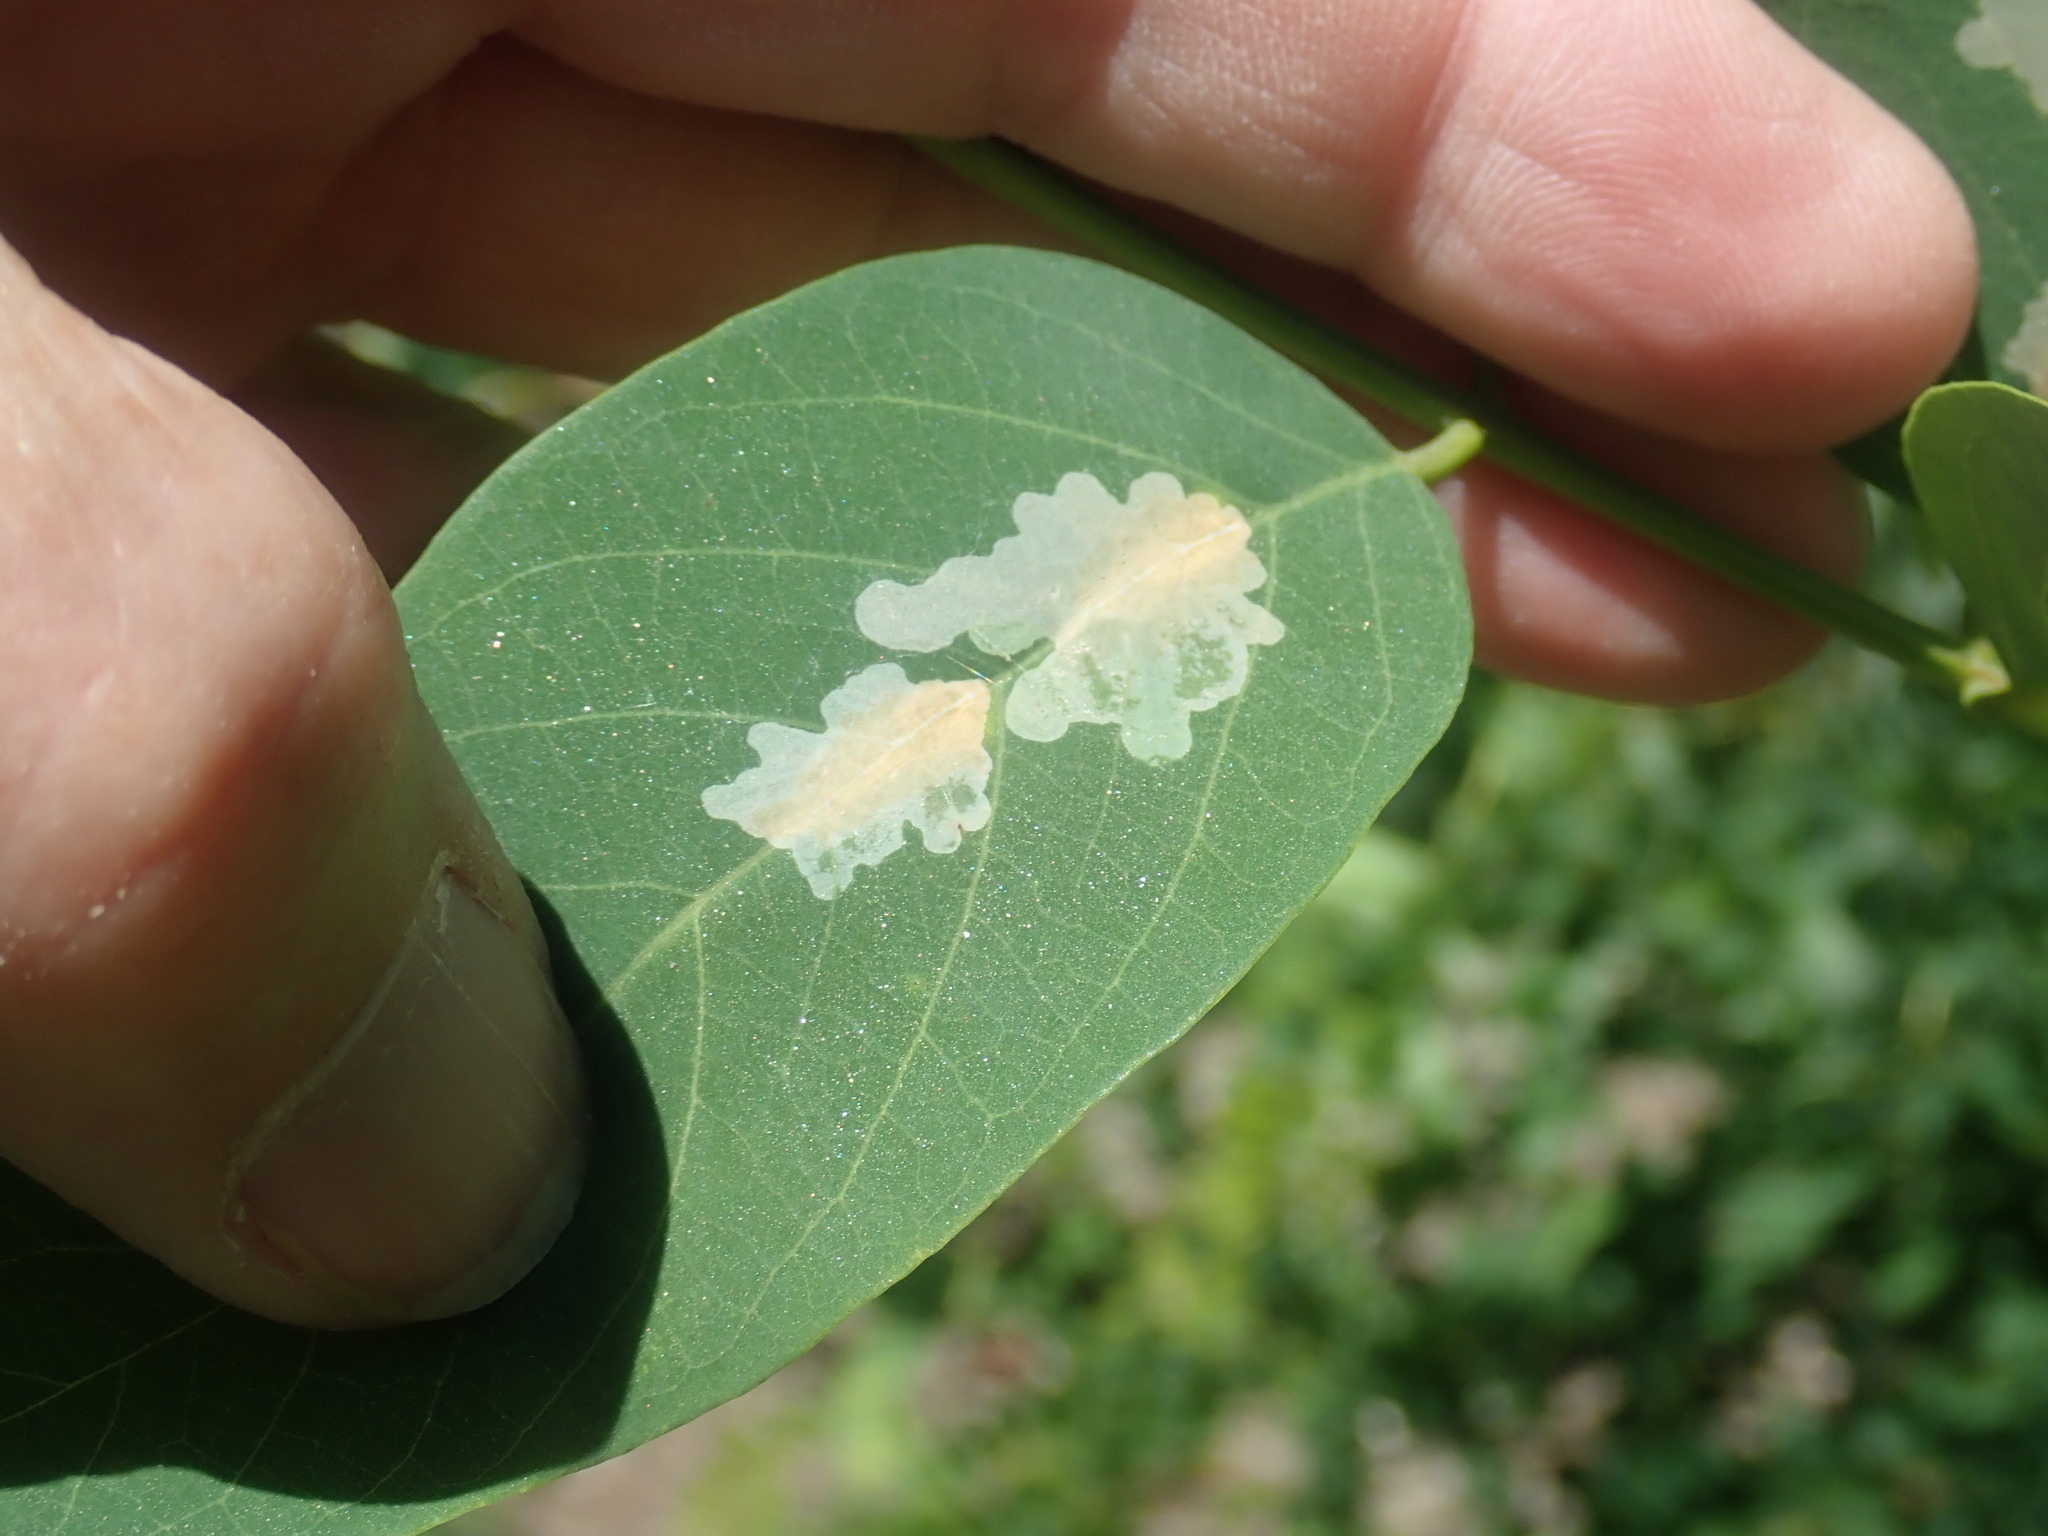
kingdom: Animalia
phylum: Arthropoda
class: Insecta
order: Lepidoptera
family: Gracillariidae
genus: Parectopa
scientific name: Parectopa robiniella
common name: Locust digitate leafminer
